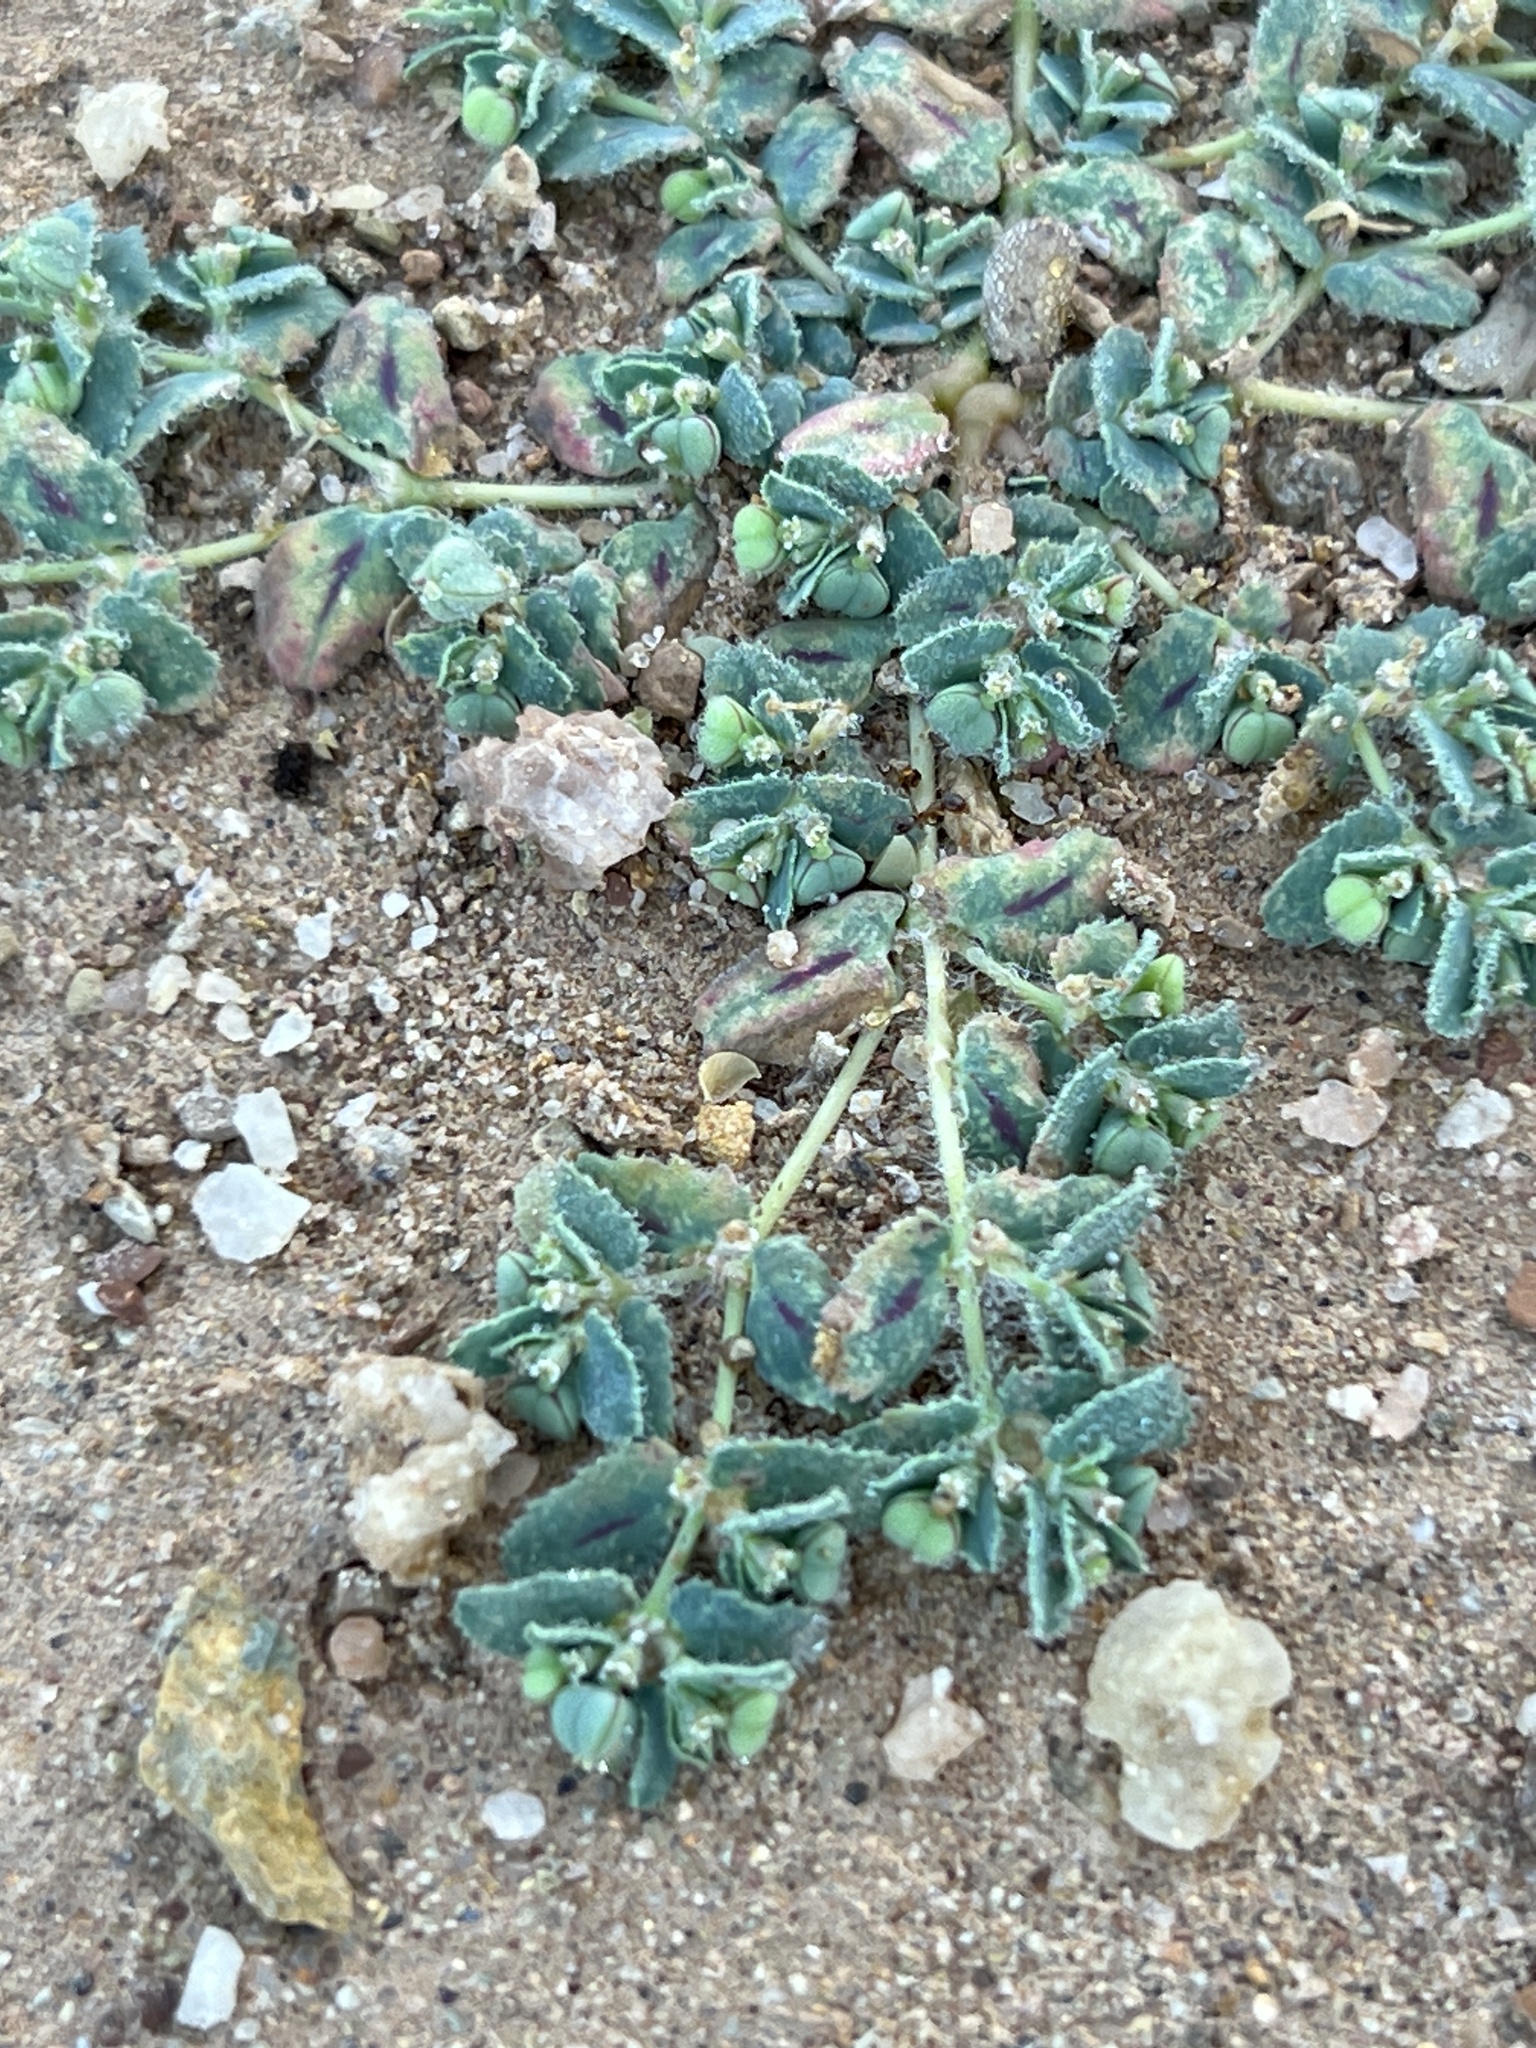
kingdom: Plantae
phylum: Tracheophyta
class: Magnoliopsida
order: Malpighiales
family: Euphorbiaceae
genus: Euphorbia
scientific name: Euphorbia serrula
